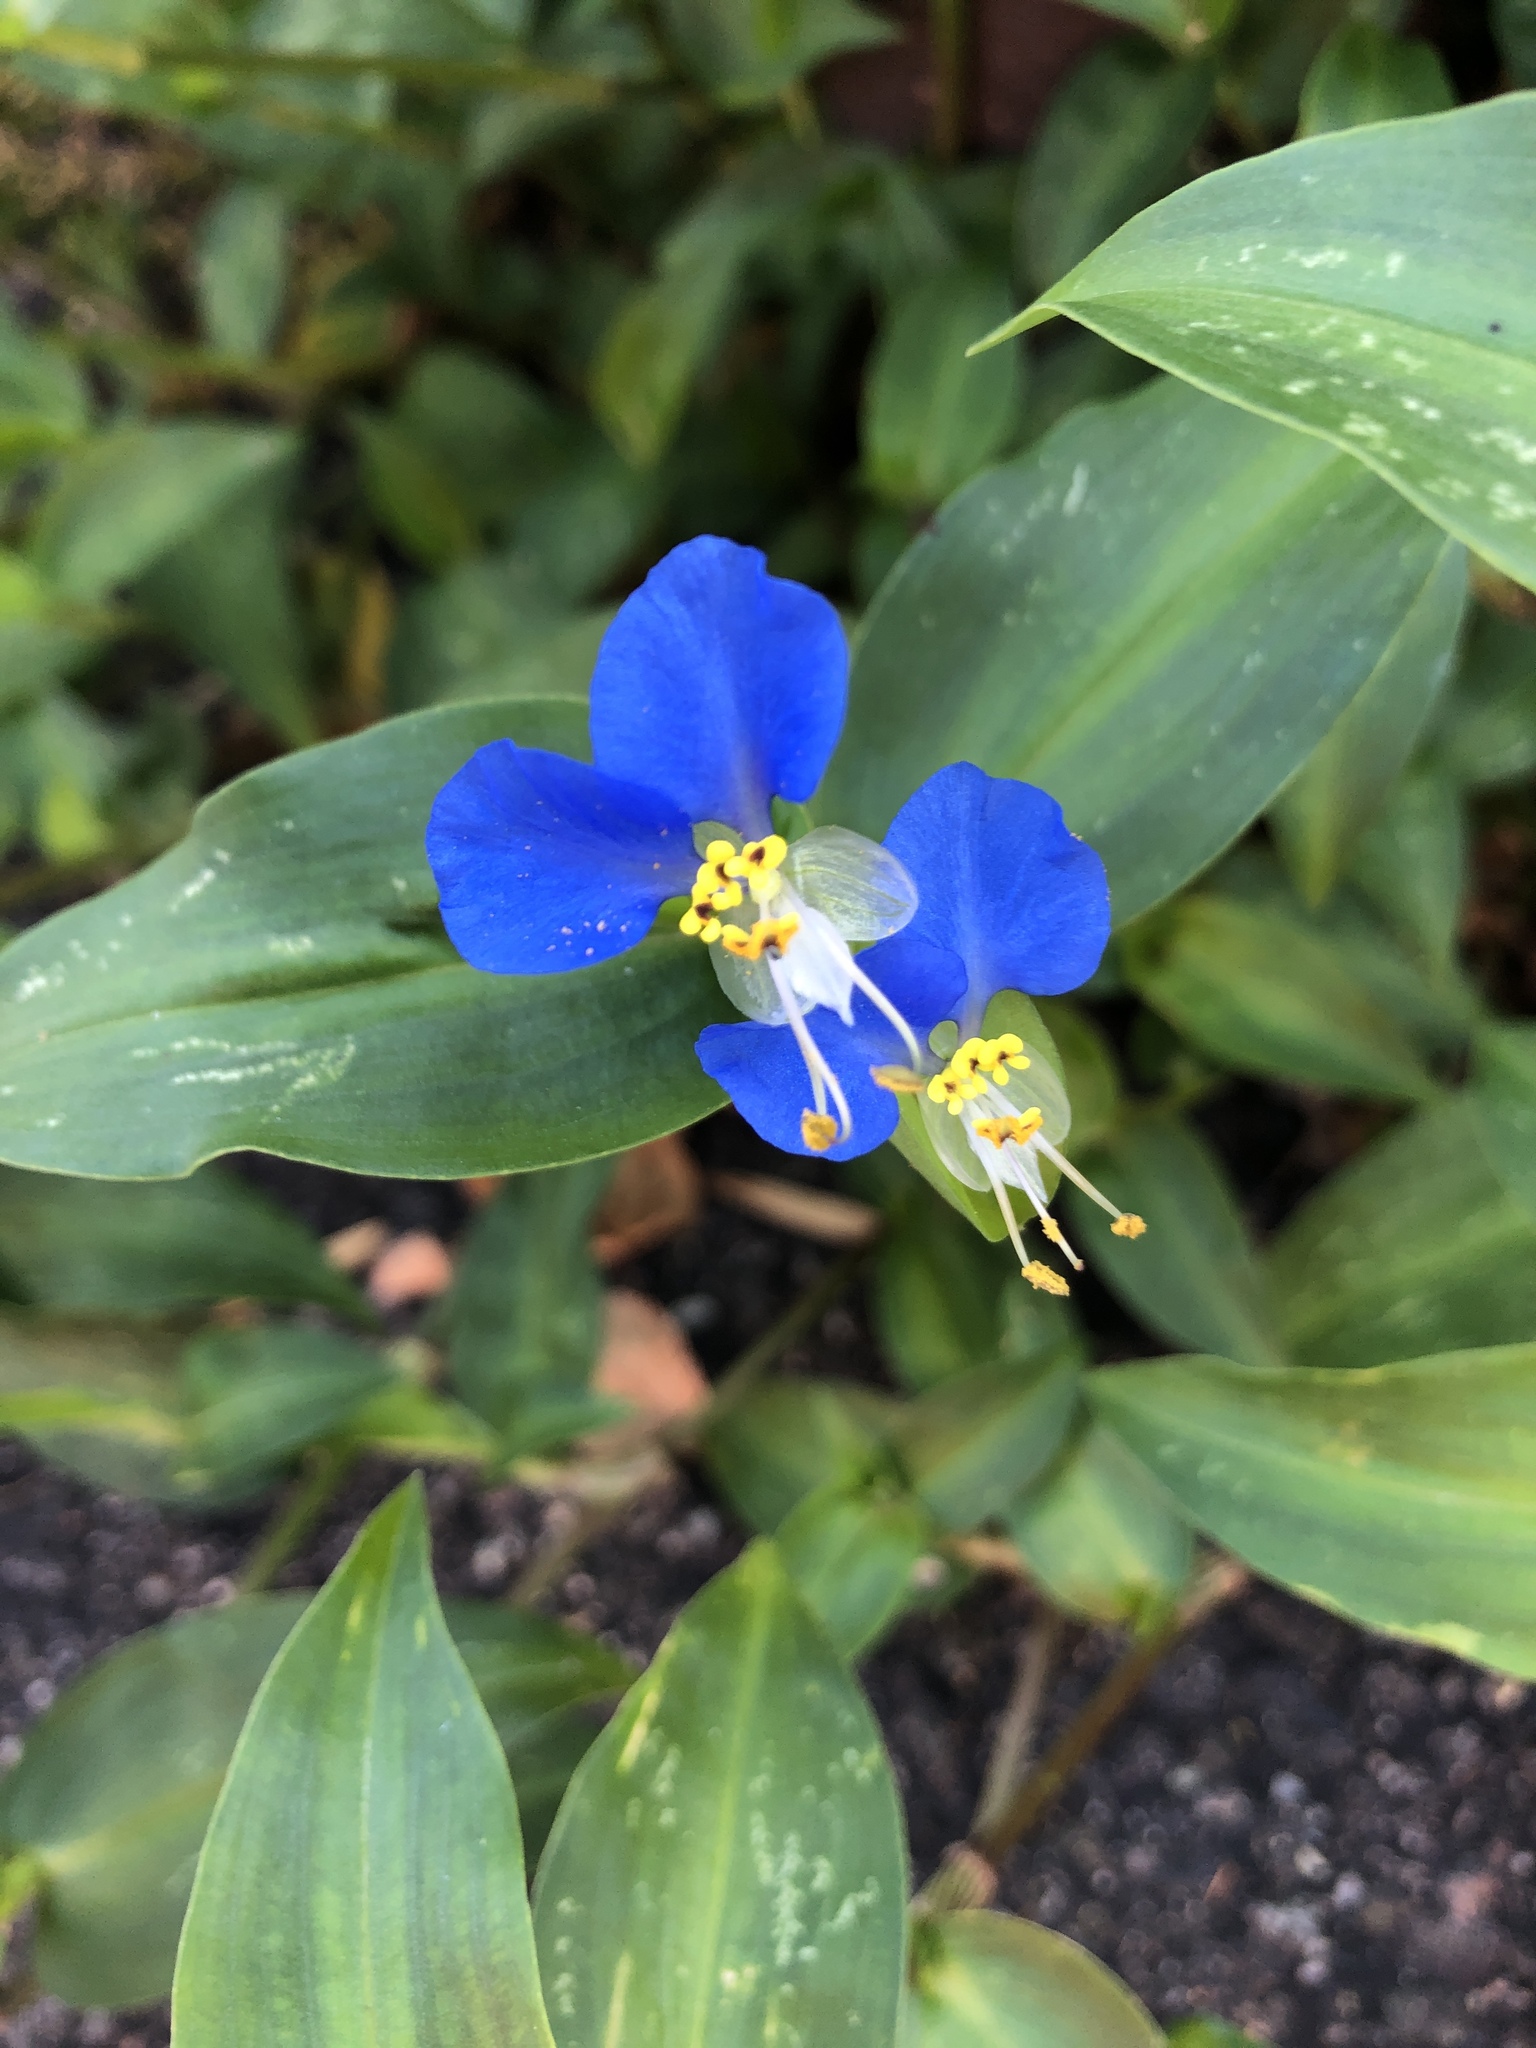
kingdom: Plantae
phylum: Tracheophyta
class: Liliopsida
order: Commelinales
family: Commelinaceae
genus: Commelina
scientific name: Commelina communis
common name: Asiatic dayflower
